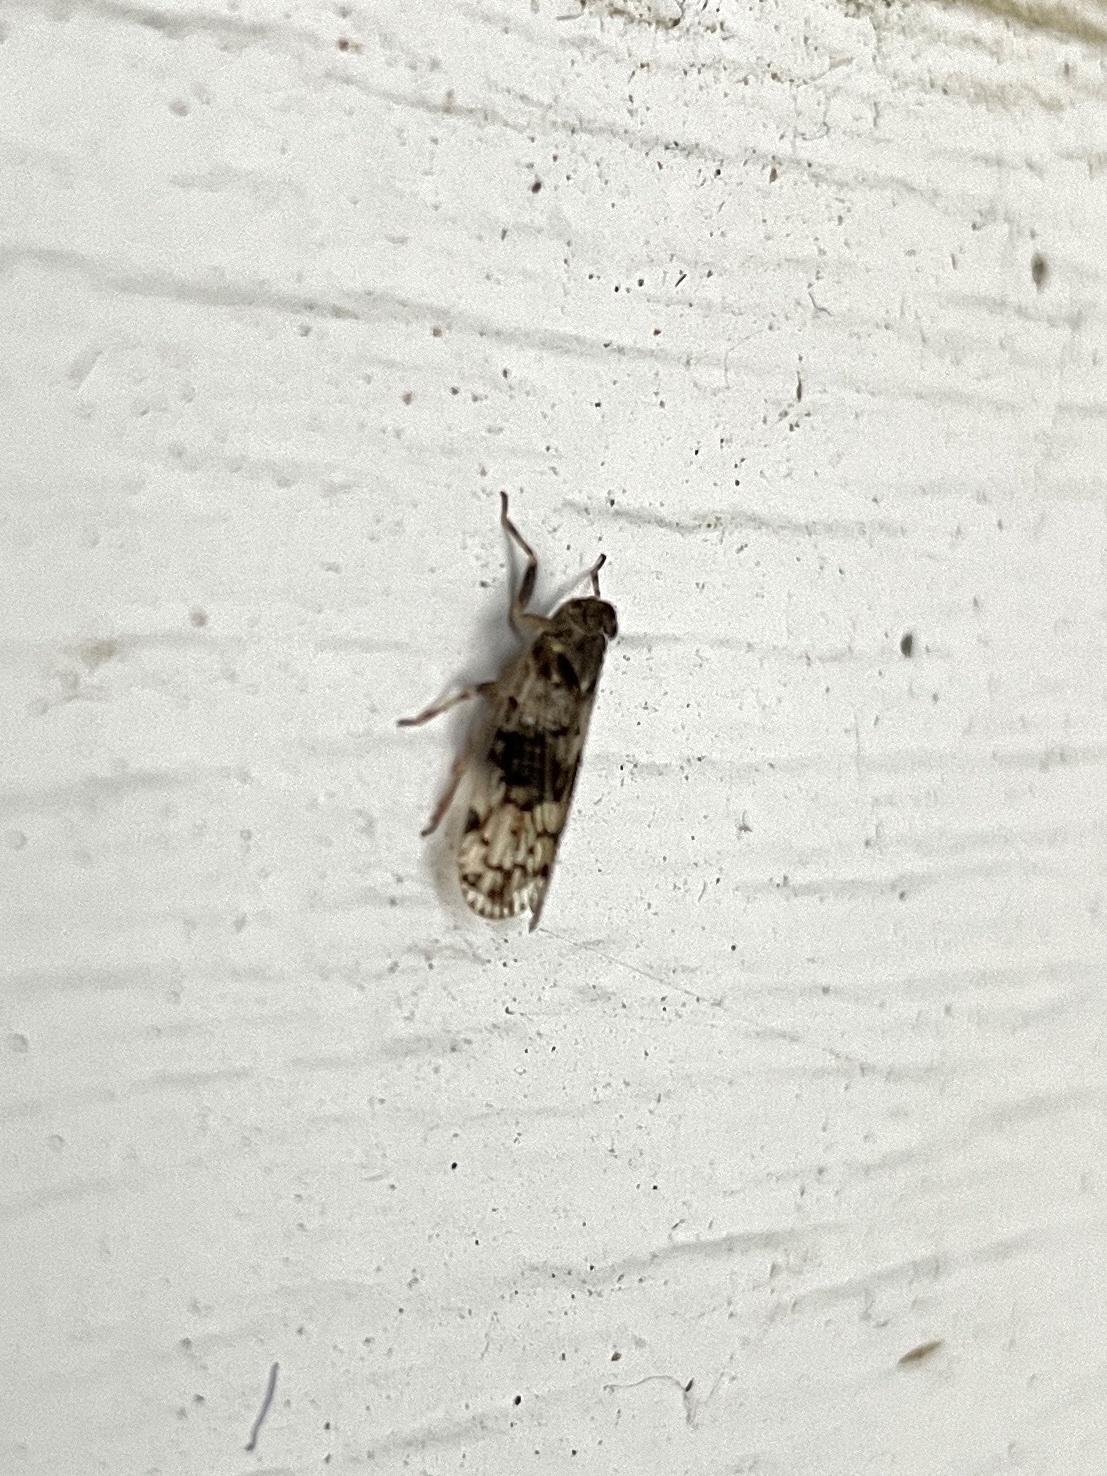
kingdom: Animalia
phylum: Arthropoda
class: Insecta
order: Hemiptera
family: Cixiidae
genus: Melanoliarus
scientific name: Melanoliarus placitus
